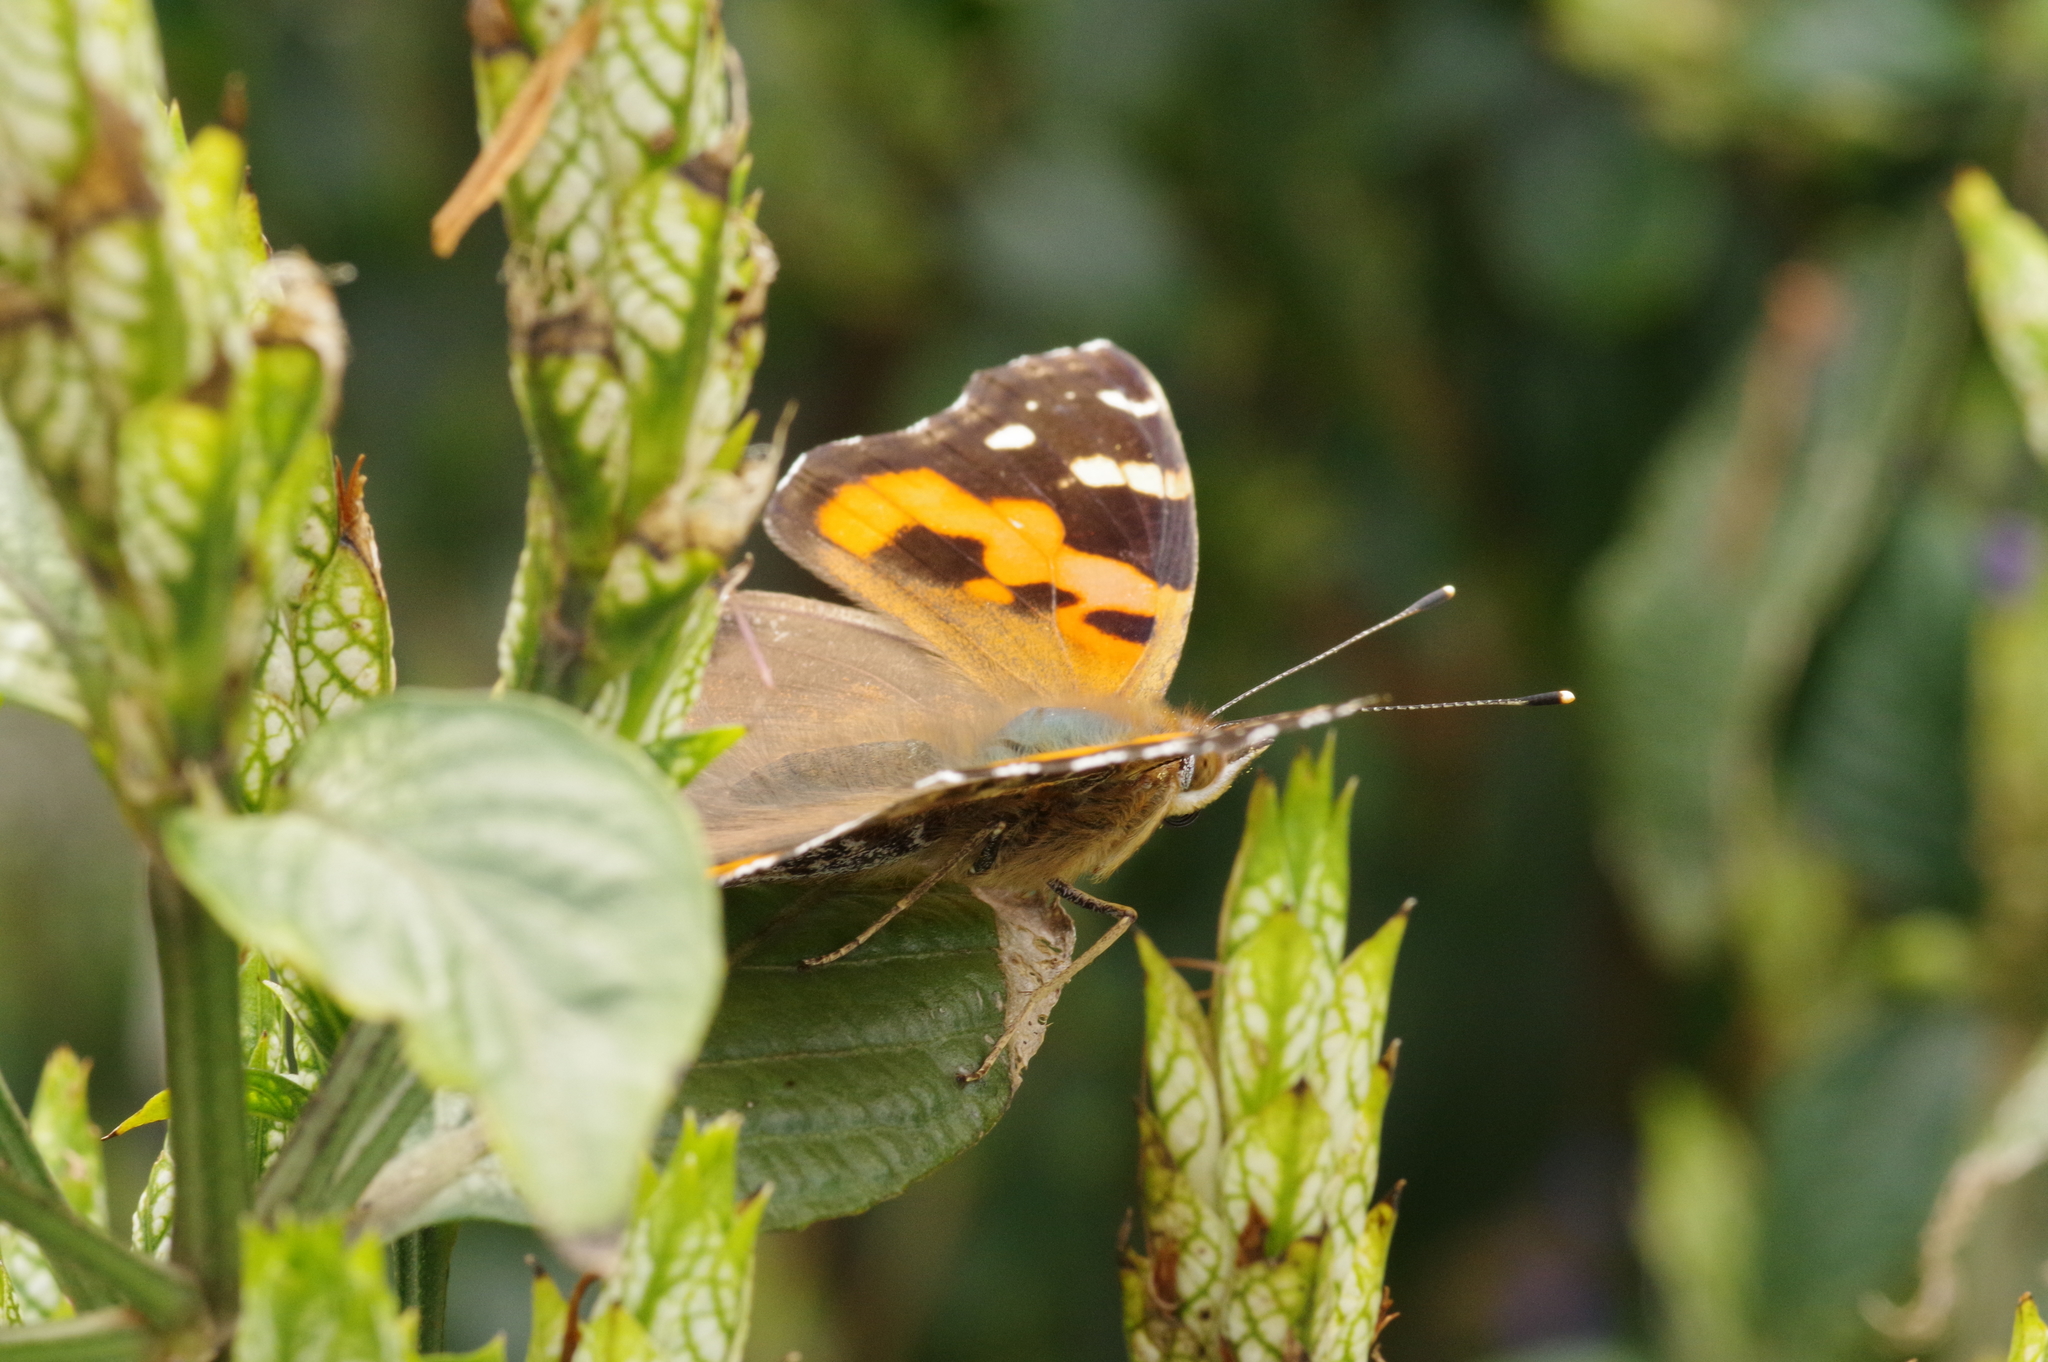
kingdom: Animalia
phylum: Arthropoda
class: Insecta
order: Lepidoptera
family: Nymphalidae
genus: Vanessa
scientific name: Vanessa indica
